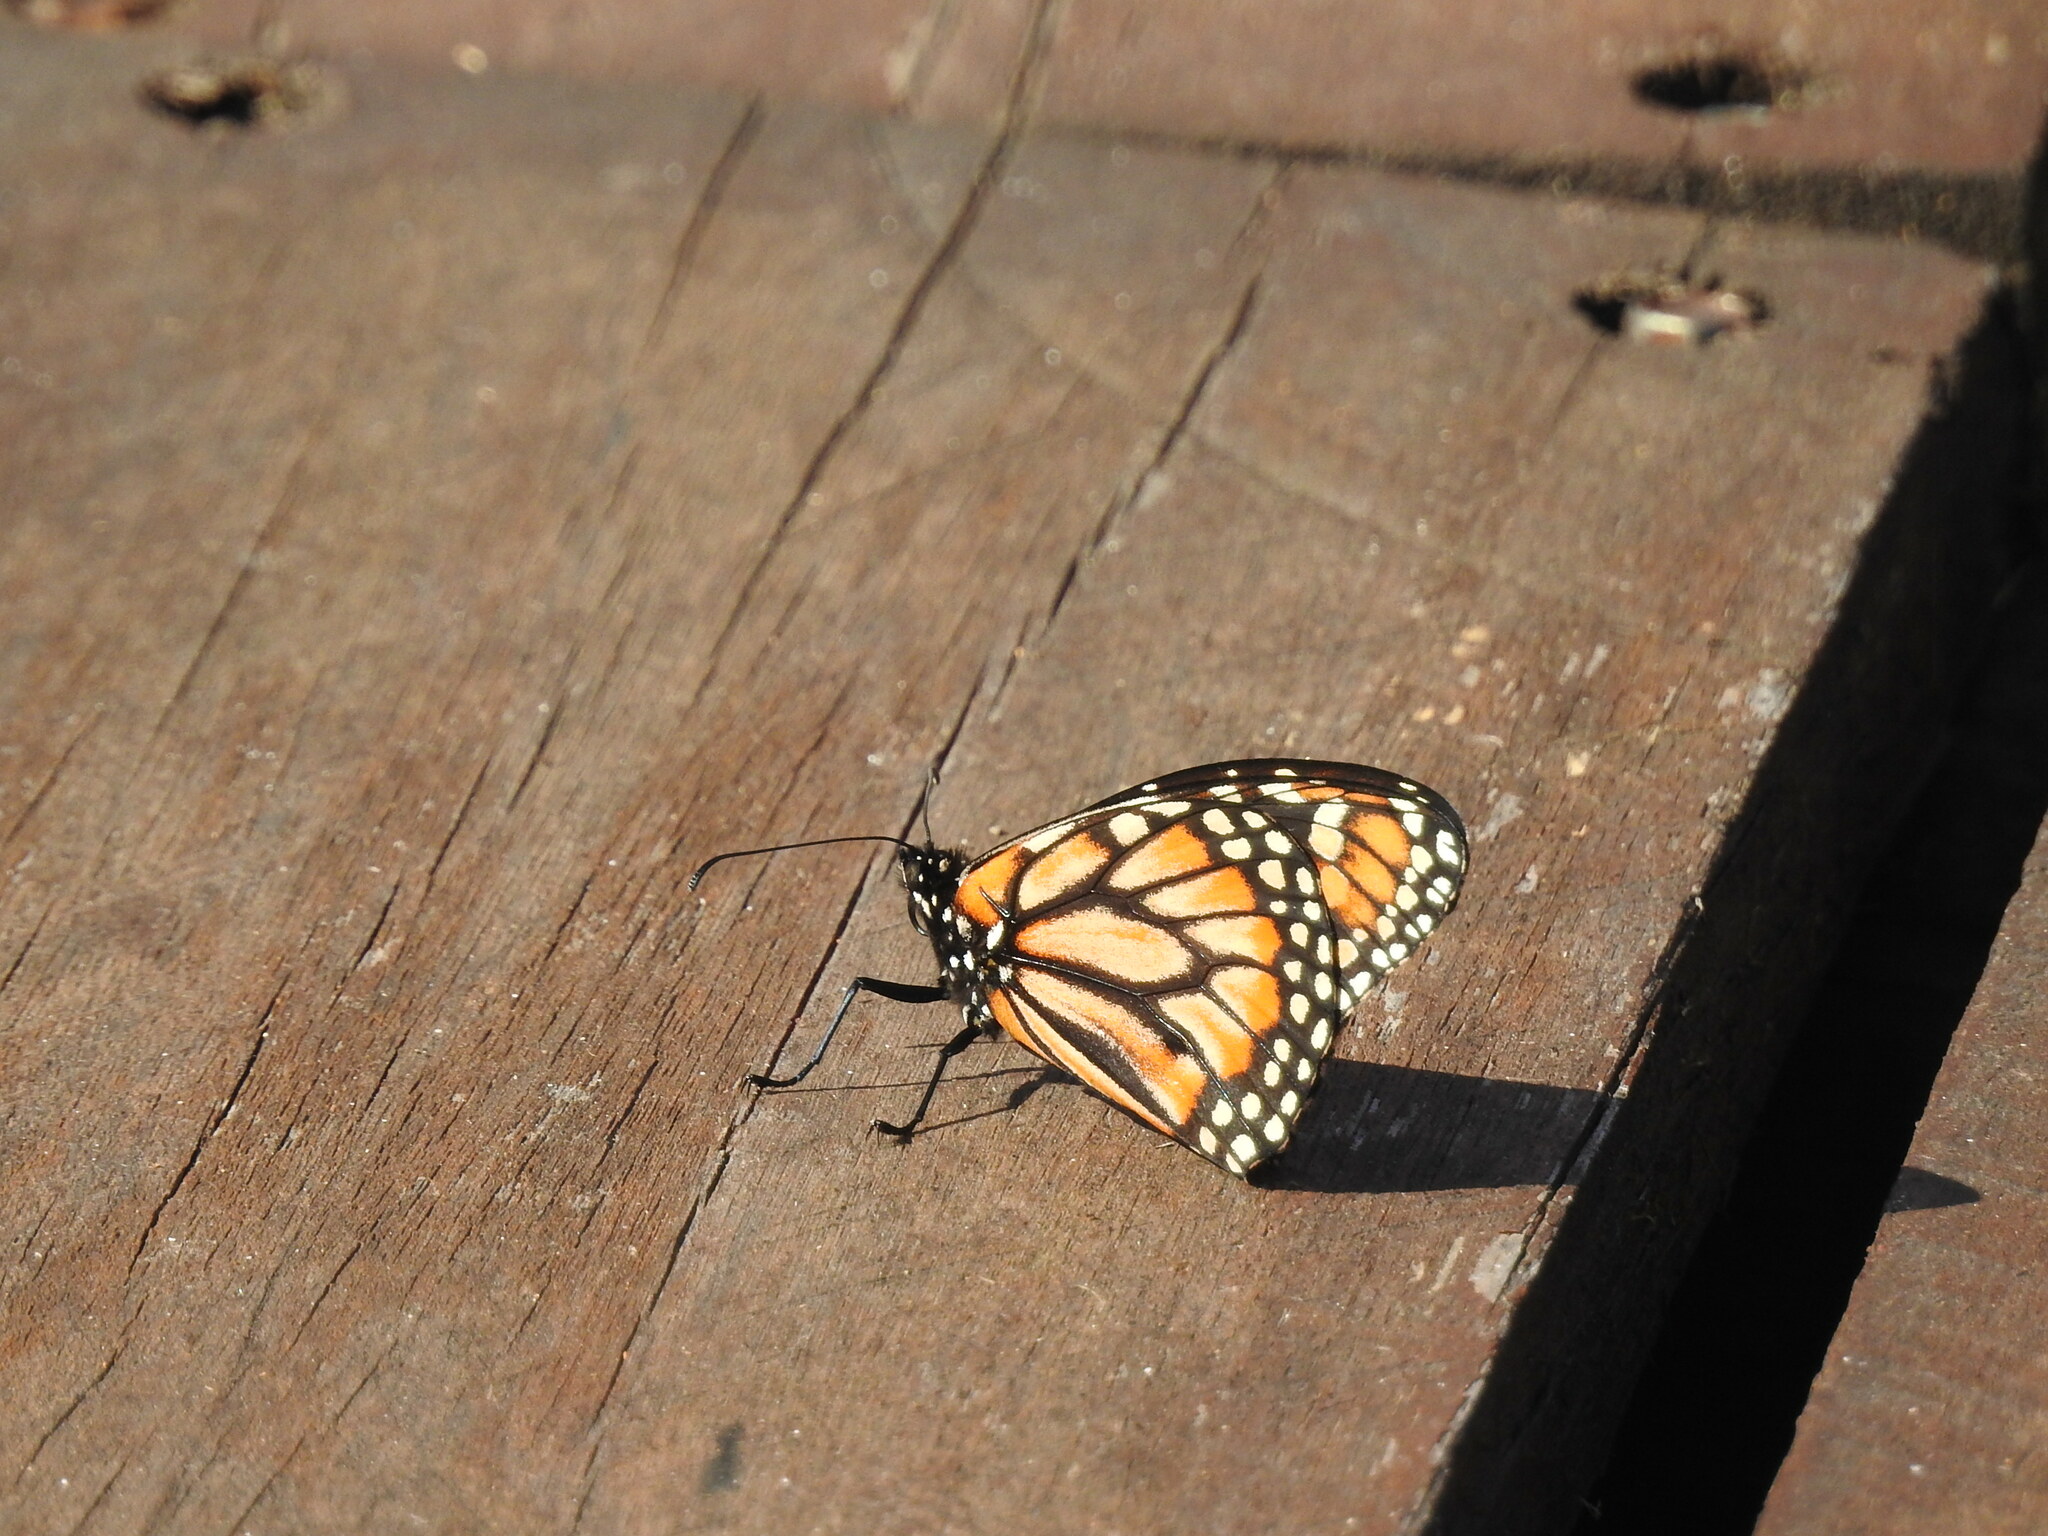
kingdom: Animalia
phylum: Arthropoda
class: Insecta
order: Lepidoptera
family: Nymphalidae
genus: Danaus
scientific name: Danaus erippus
